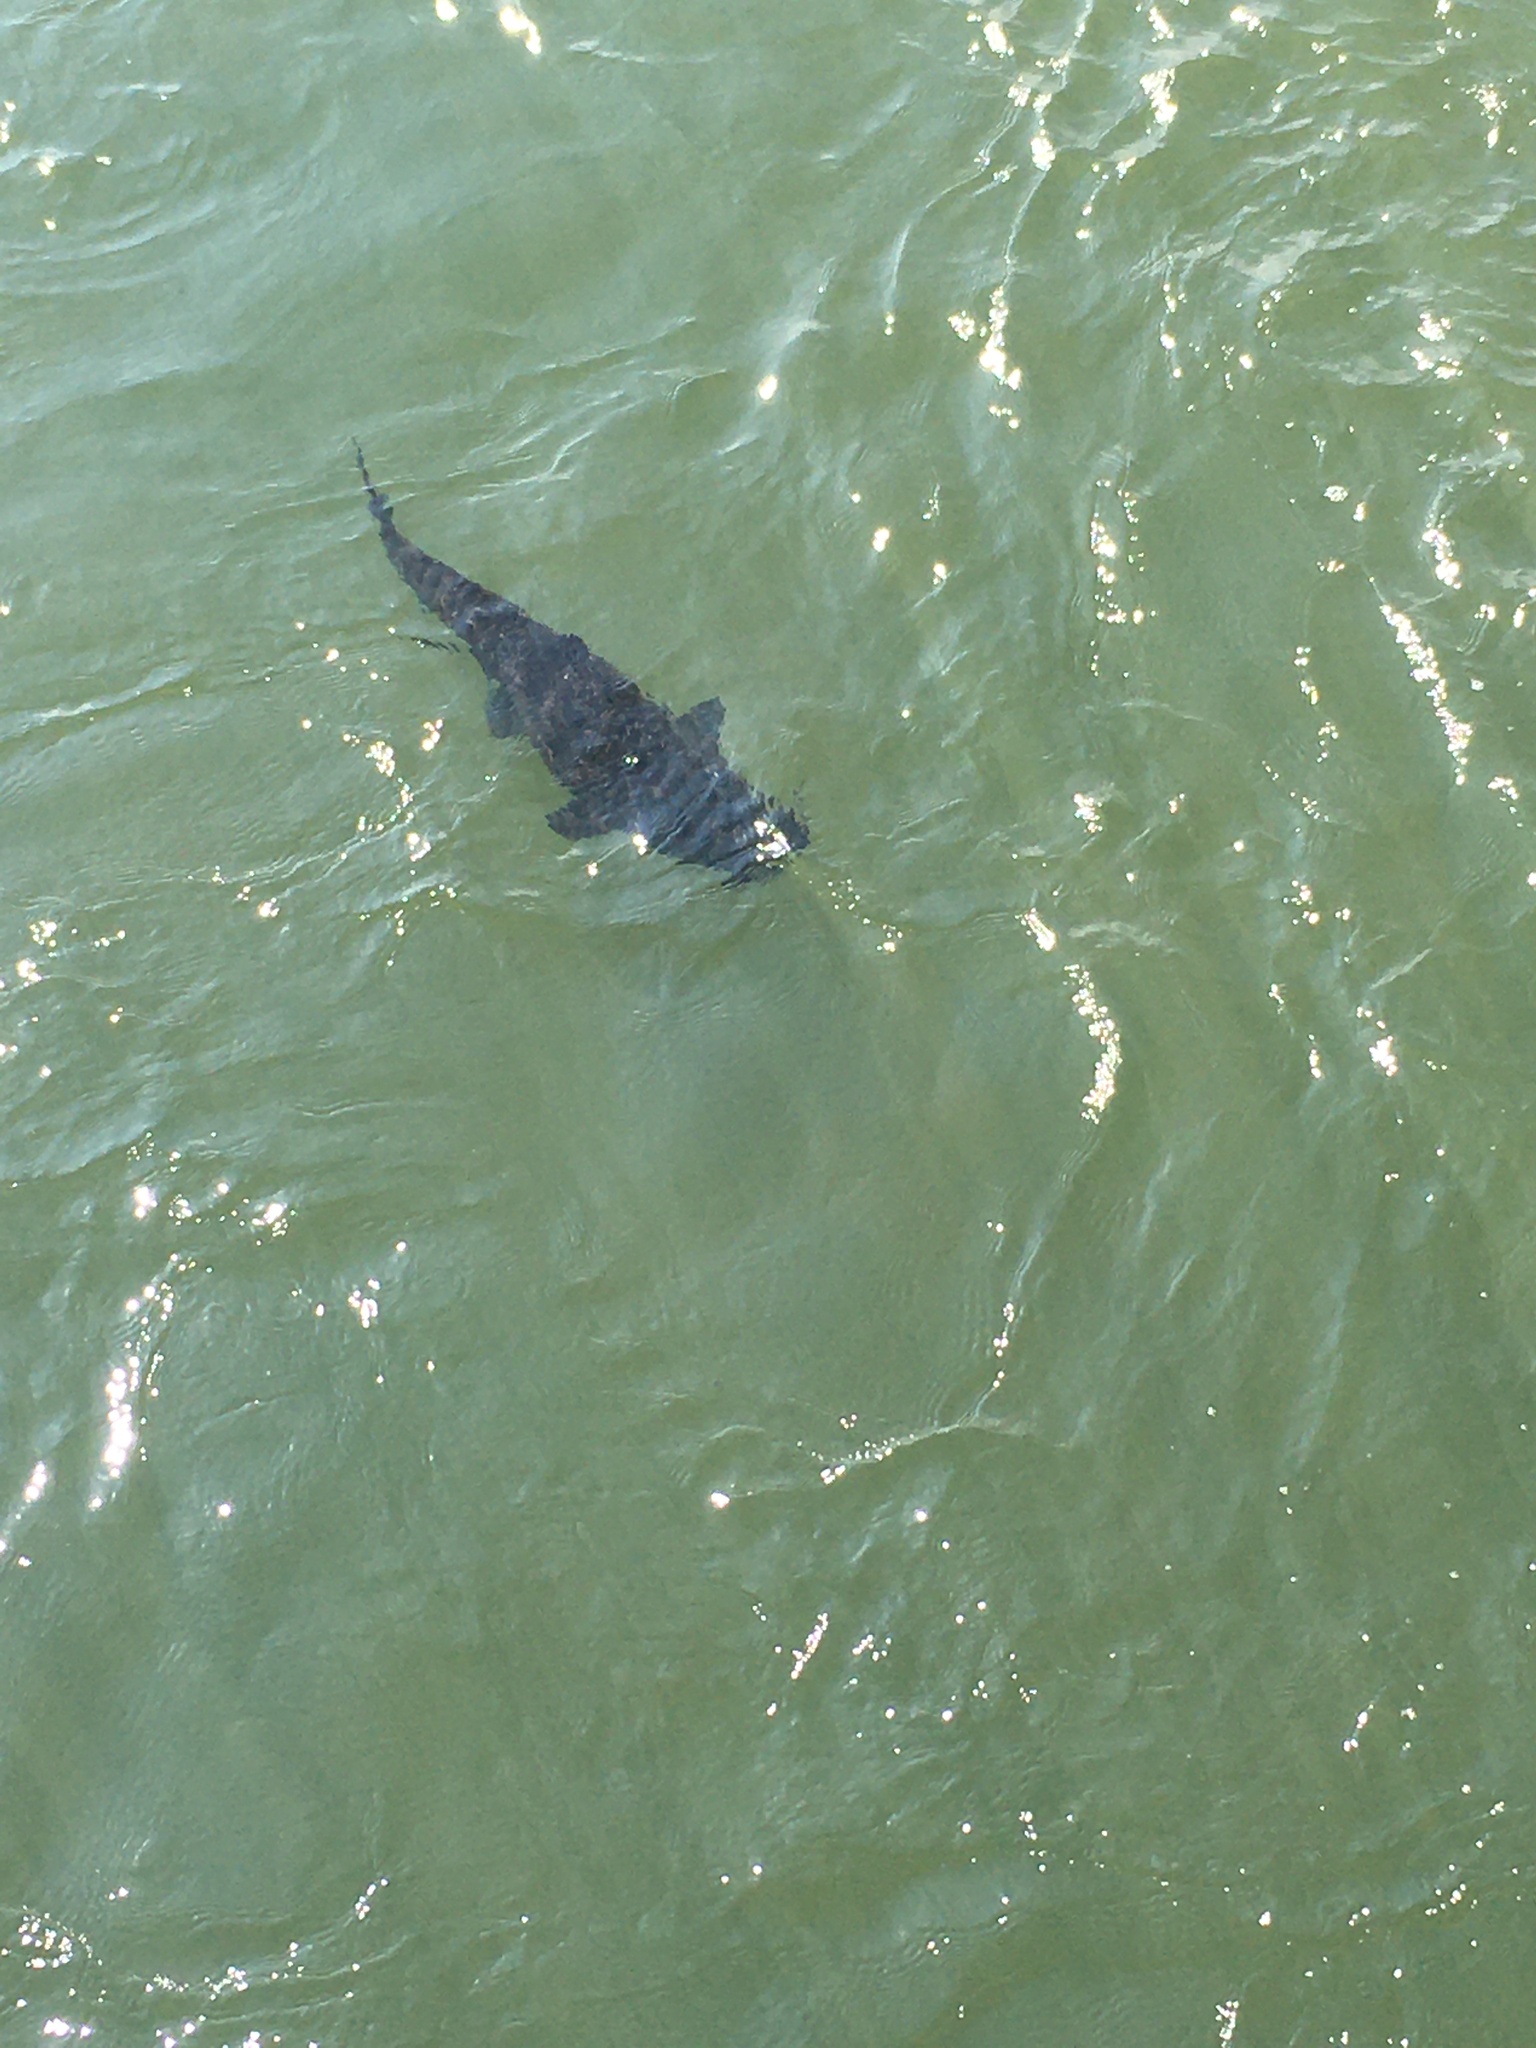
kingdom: Animalia
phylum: Chordata
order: Siluriformes
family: Pimelodidae
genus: Steindachneridion
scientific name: Steindachneridion melanodermatum
